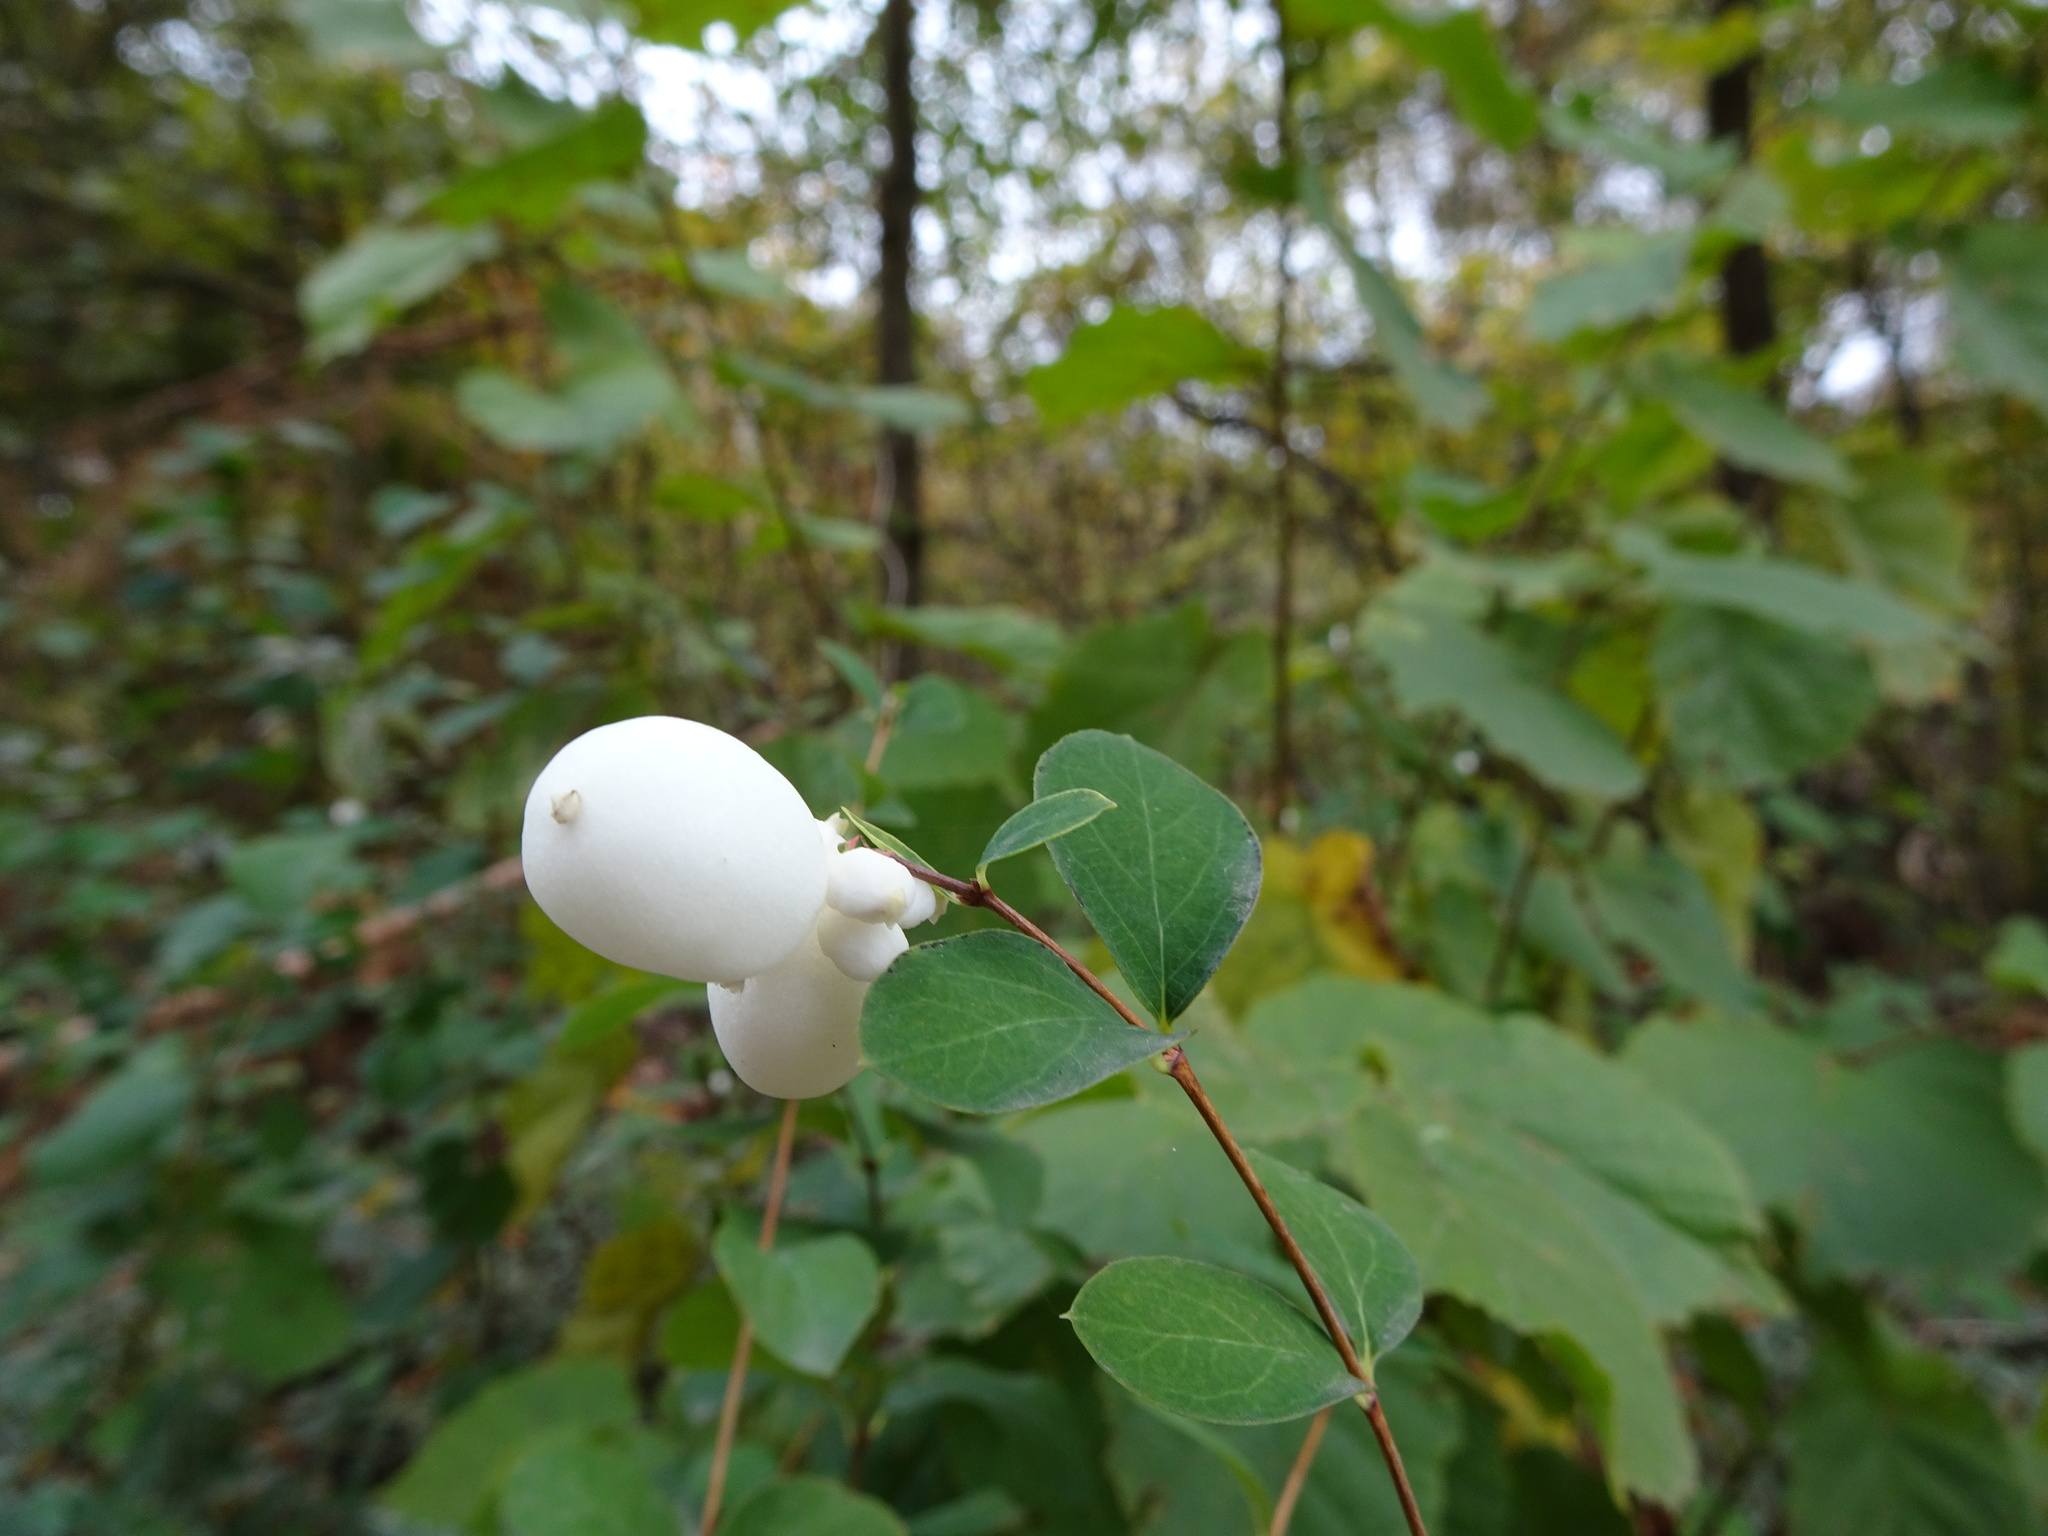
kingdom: Plantae
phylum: Tracheophyta
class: Magnoliopsida
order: Dipsacales
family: Caprifoliaceae
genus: Symphoricarpos
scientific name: Symphoricarpos albus
